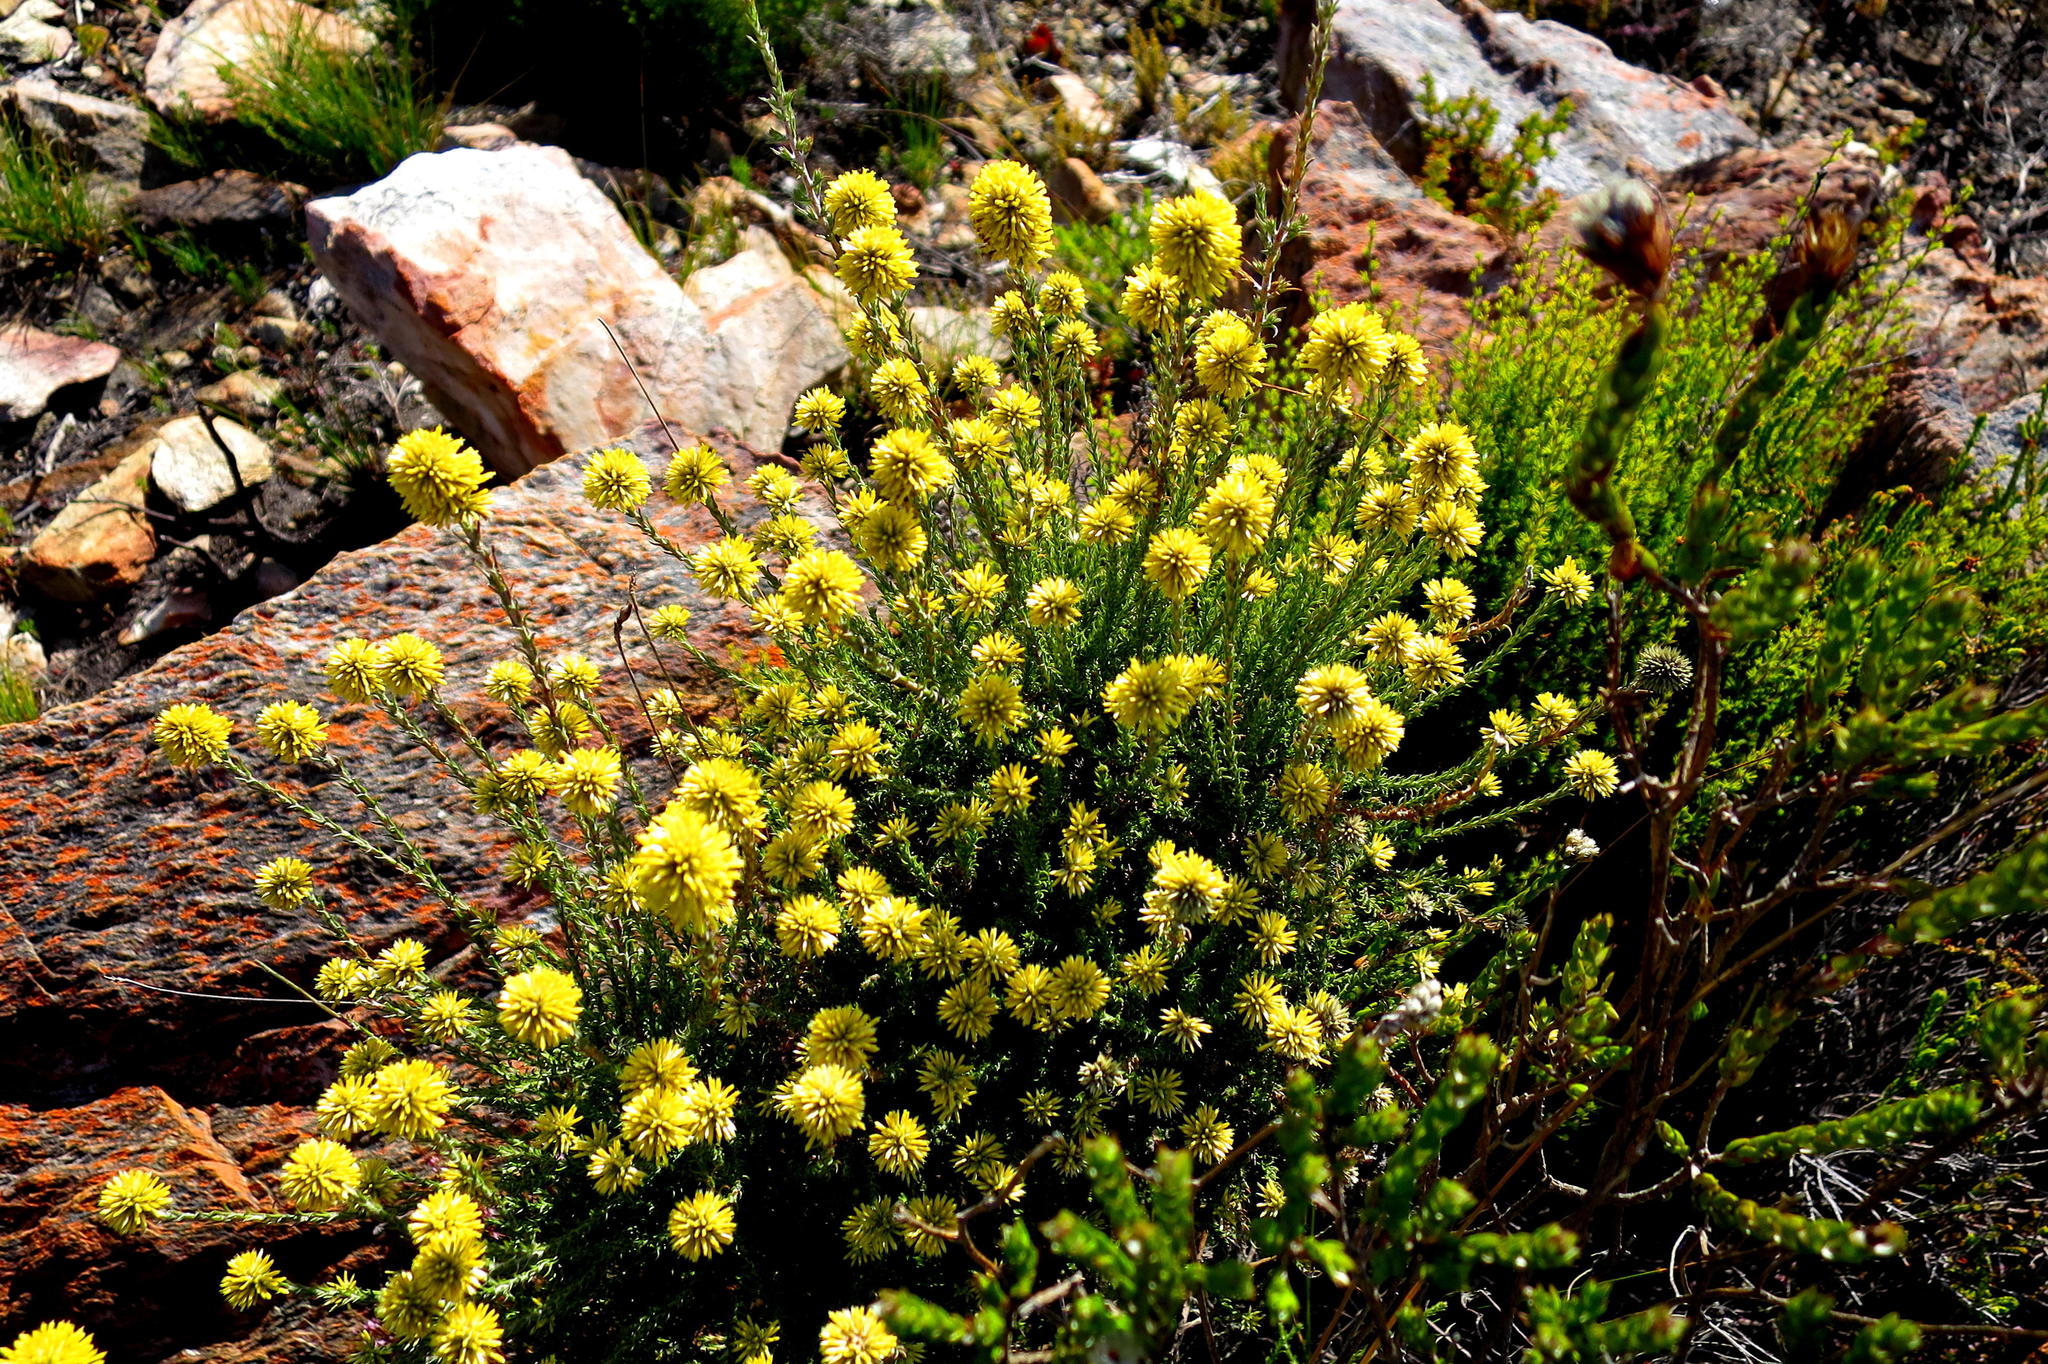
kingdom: Plantae
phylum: Tracheophyta
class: Magnoliopsida
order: Asterales
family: Asteraceae
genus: Seriphium
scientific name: Seriphium spirale
